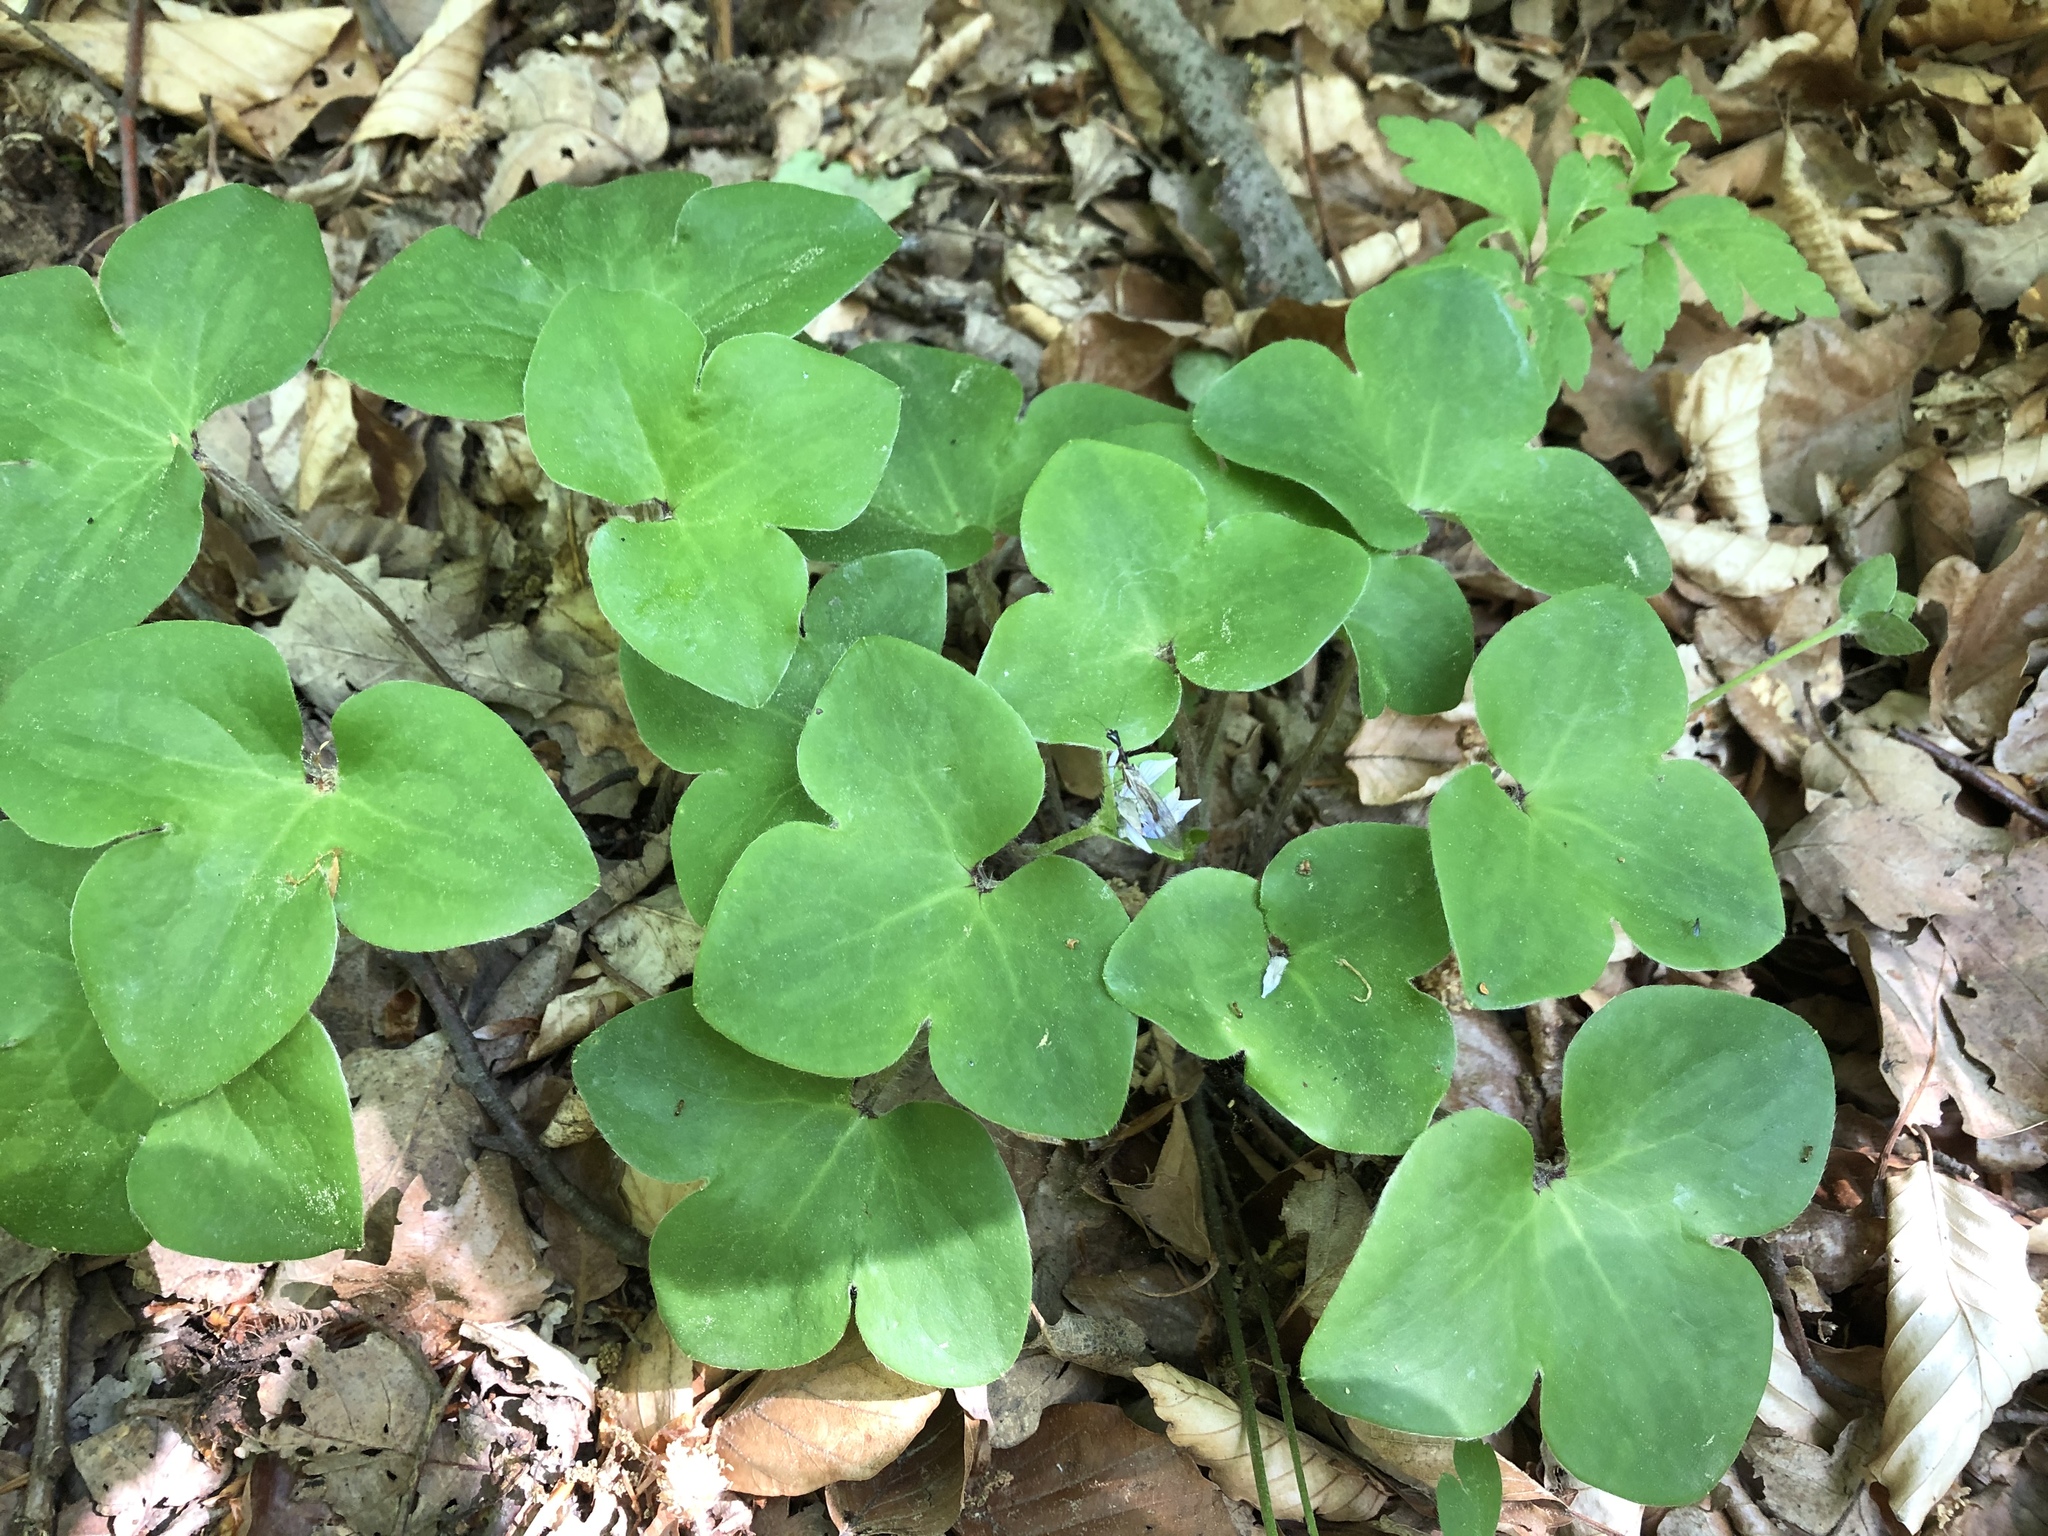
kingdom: Plantae
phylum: Tracheophyta
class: Magnoliopsida
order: Ranunculales
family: Ranunculaceae
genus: Hepatica
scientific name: Hepatica nobilis
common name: Liverleaf
